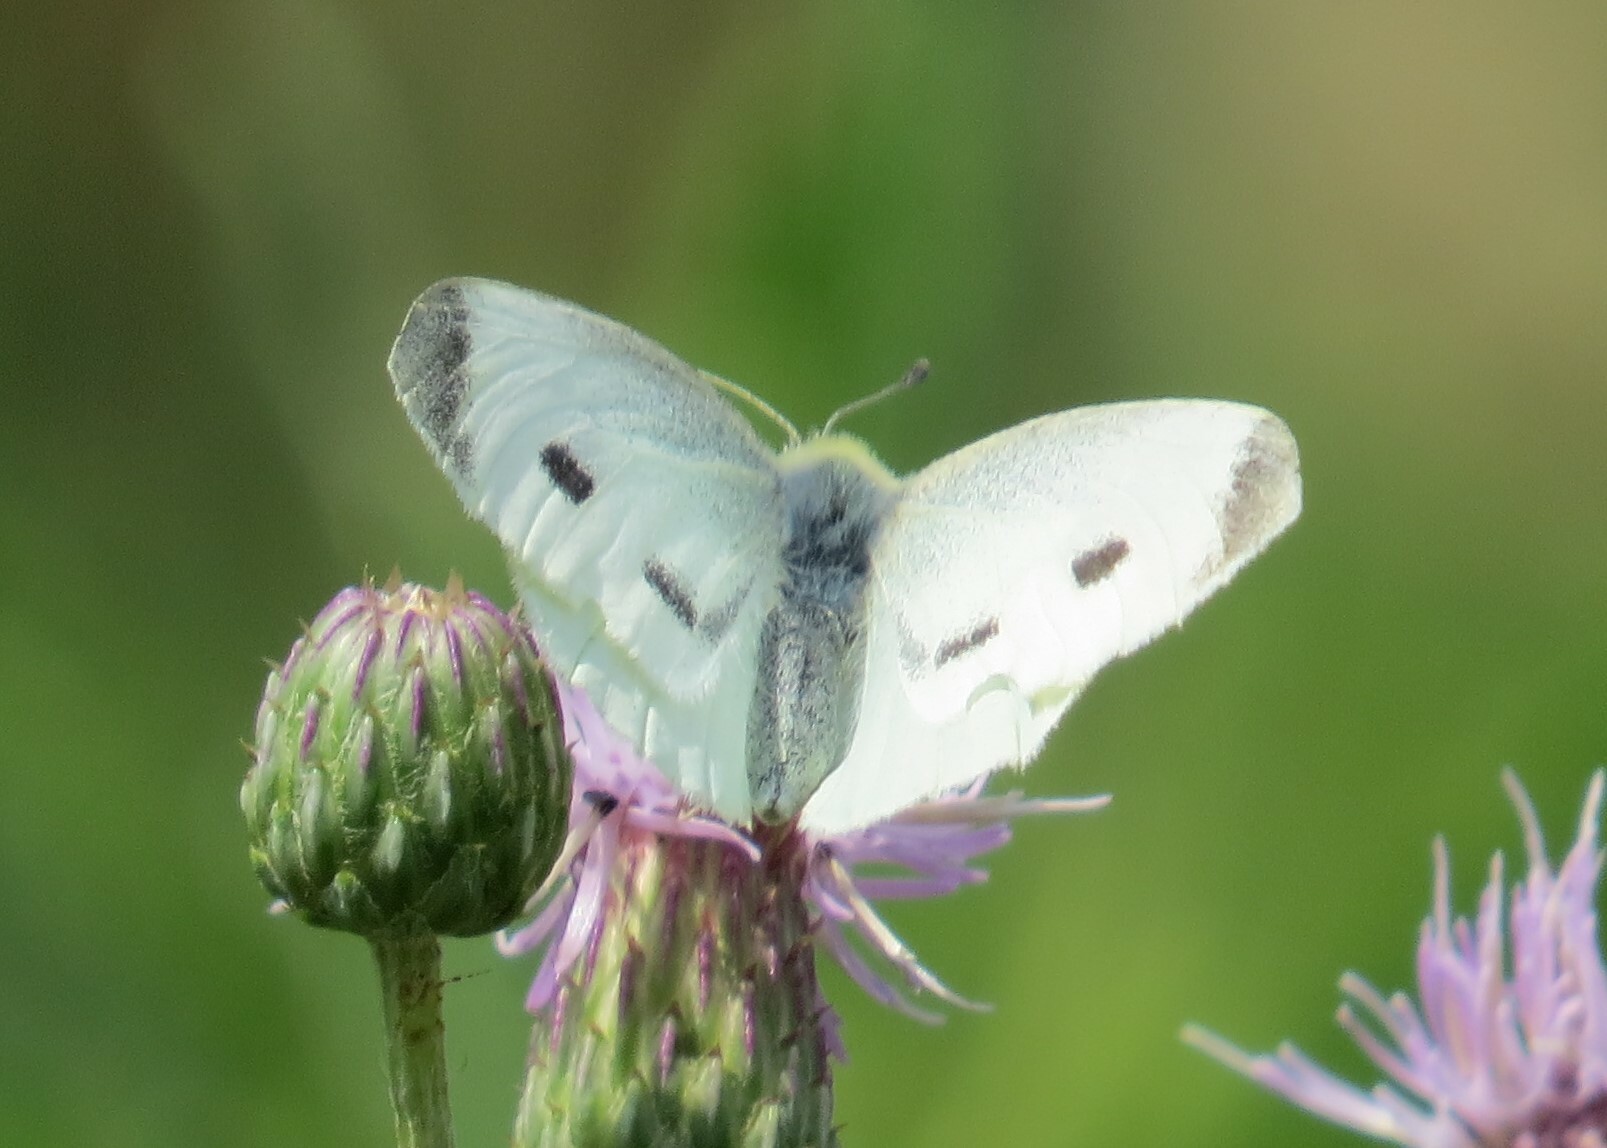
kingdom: Animalia
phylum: Arthropoda
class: Insecta
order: Lepidoptera
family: Pieridae
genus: Pieris
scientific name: Pieris rapae
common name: Small white
